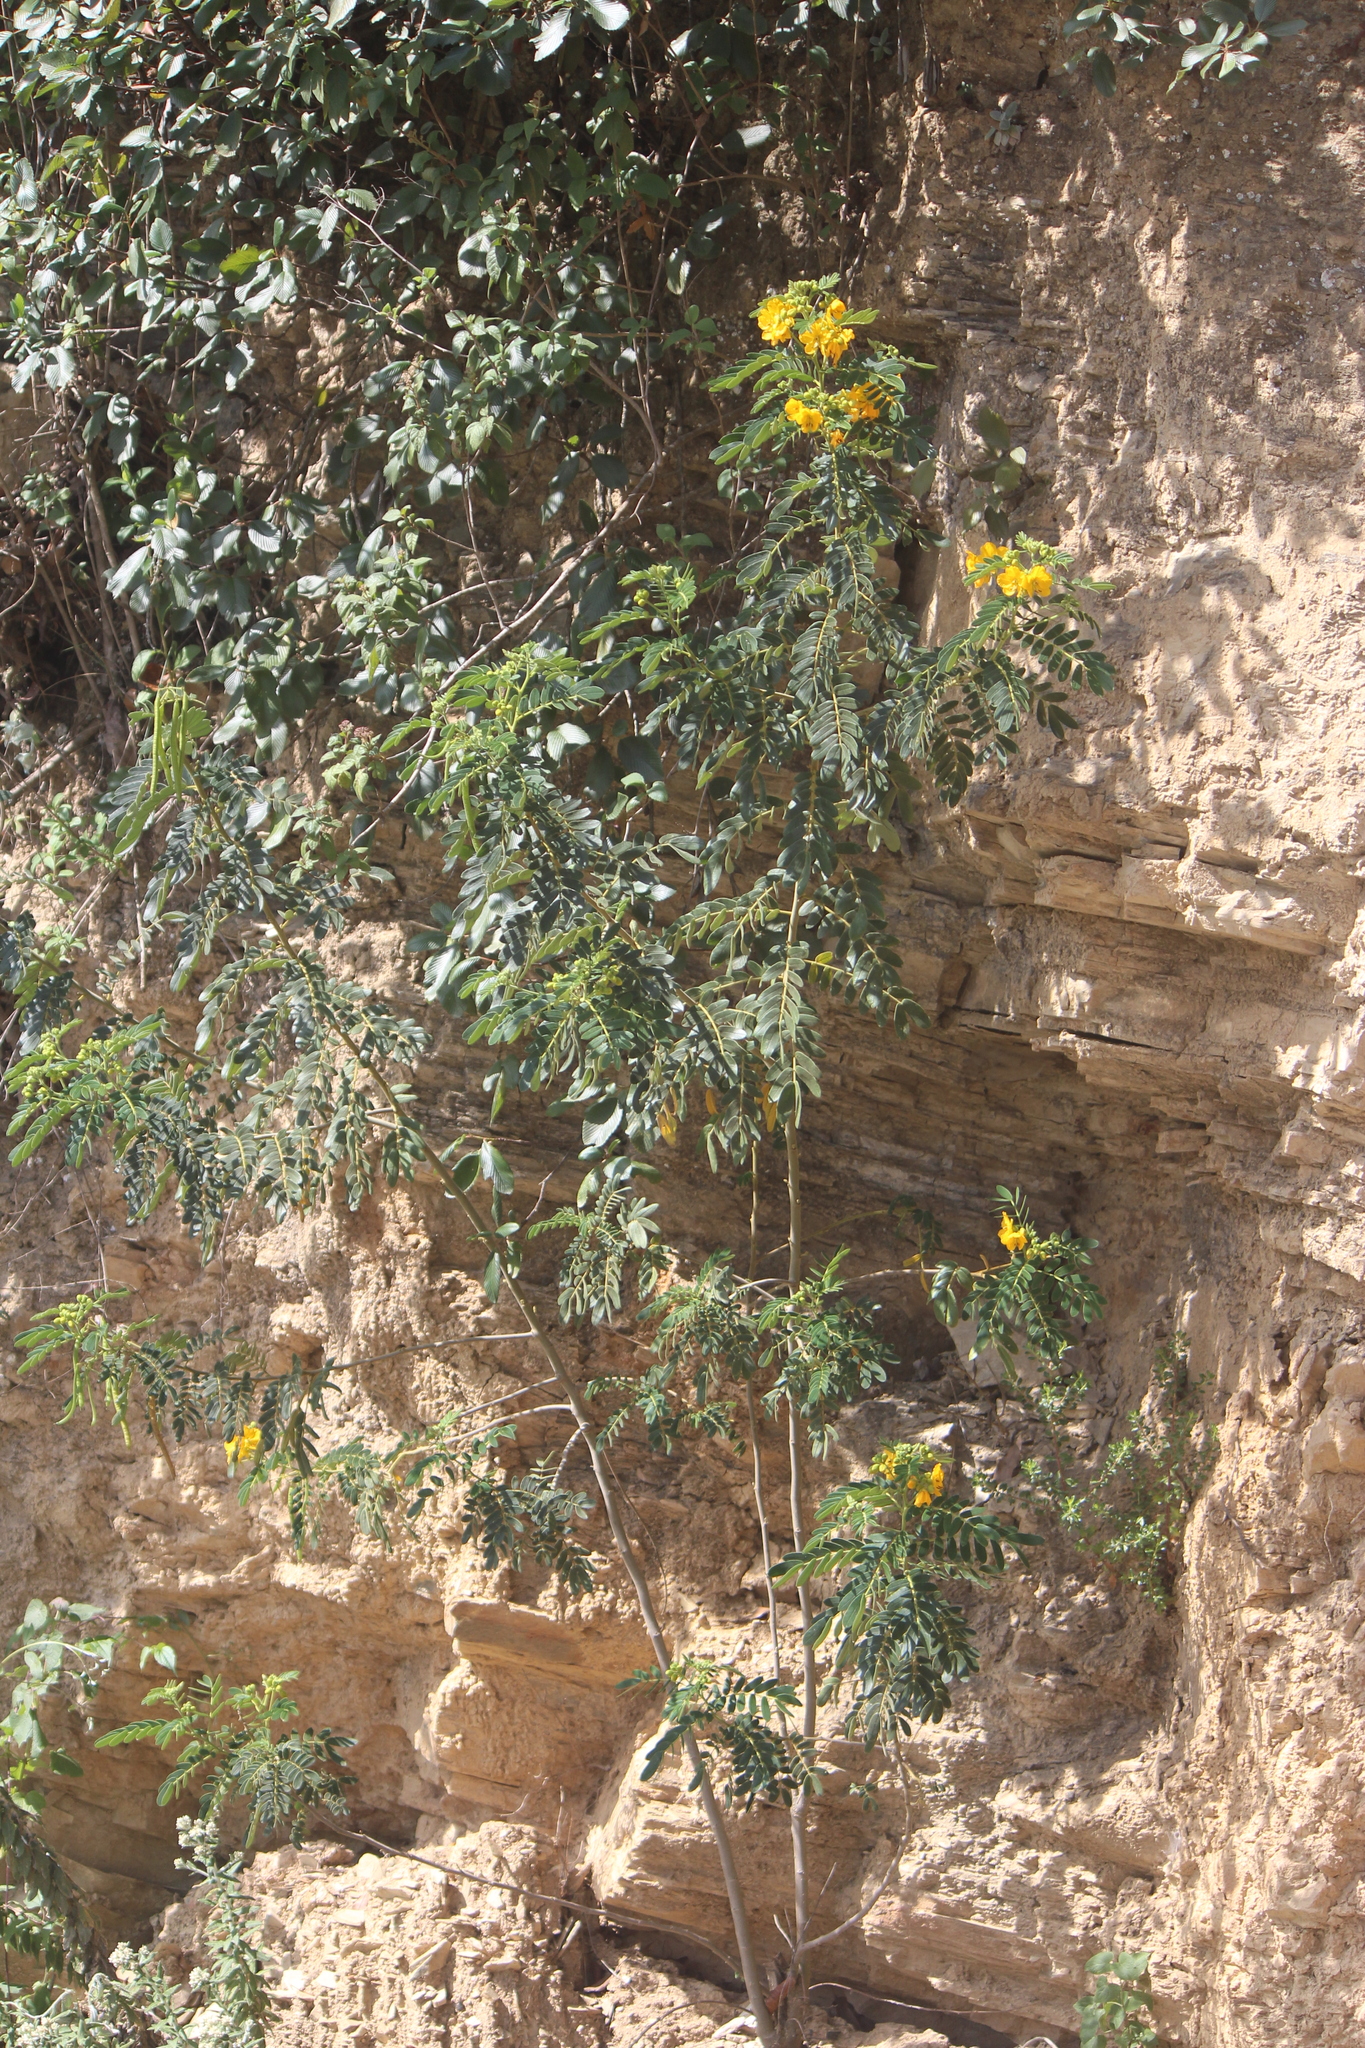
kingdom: Plantae
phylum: Tracheophyta
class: Magnoliopsida
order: Fabales
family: Fabaceae
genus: Senna
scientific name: Senna multiglandulosa
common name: Glandular senna
